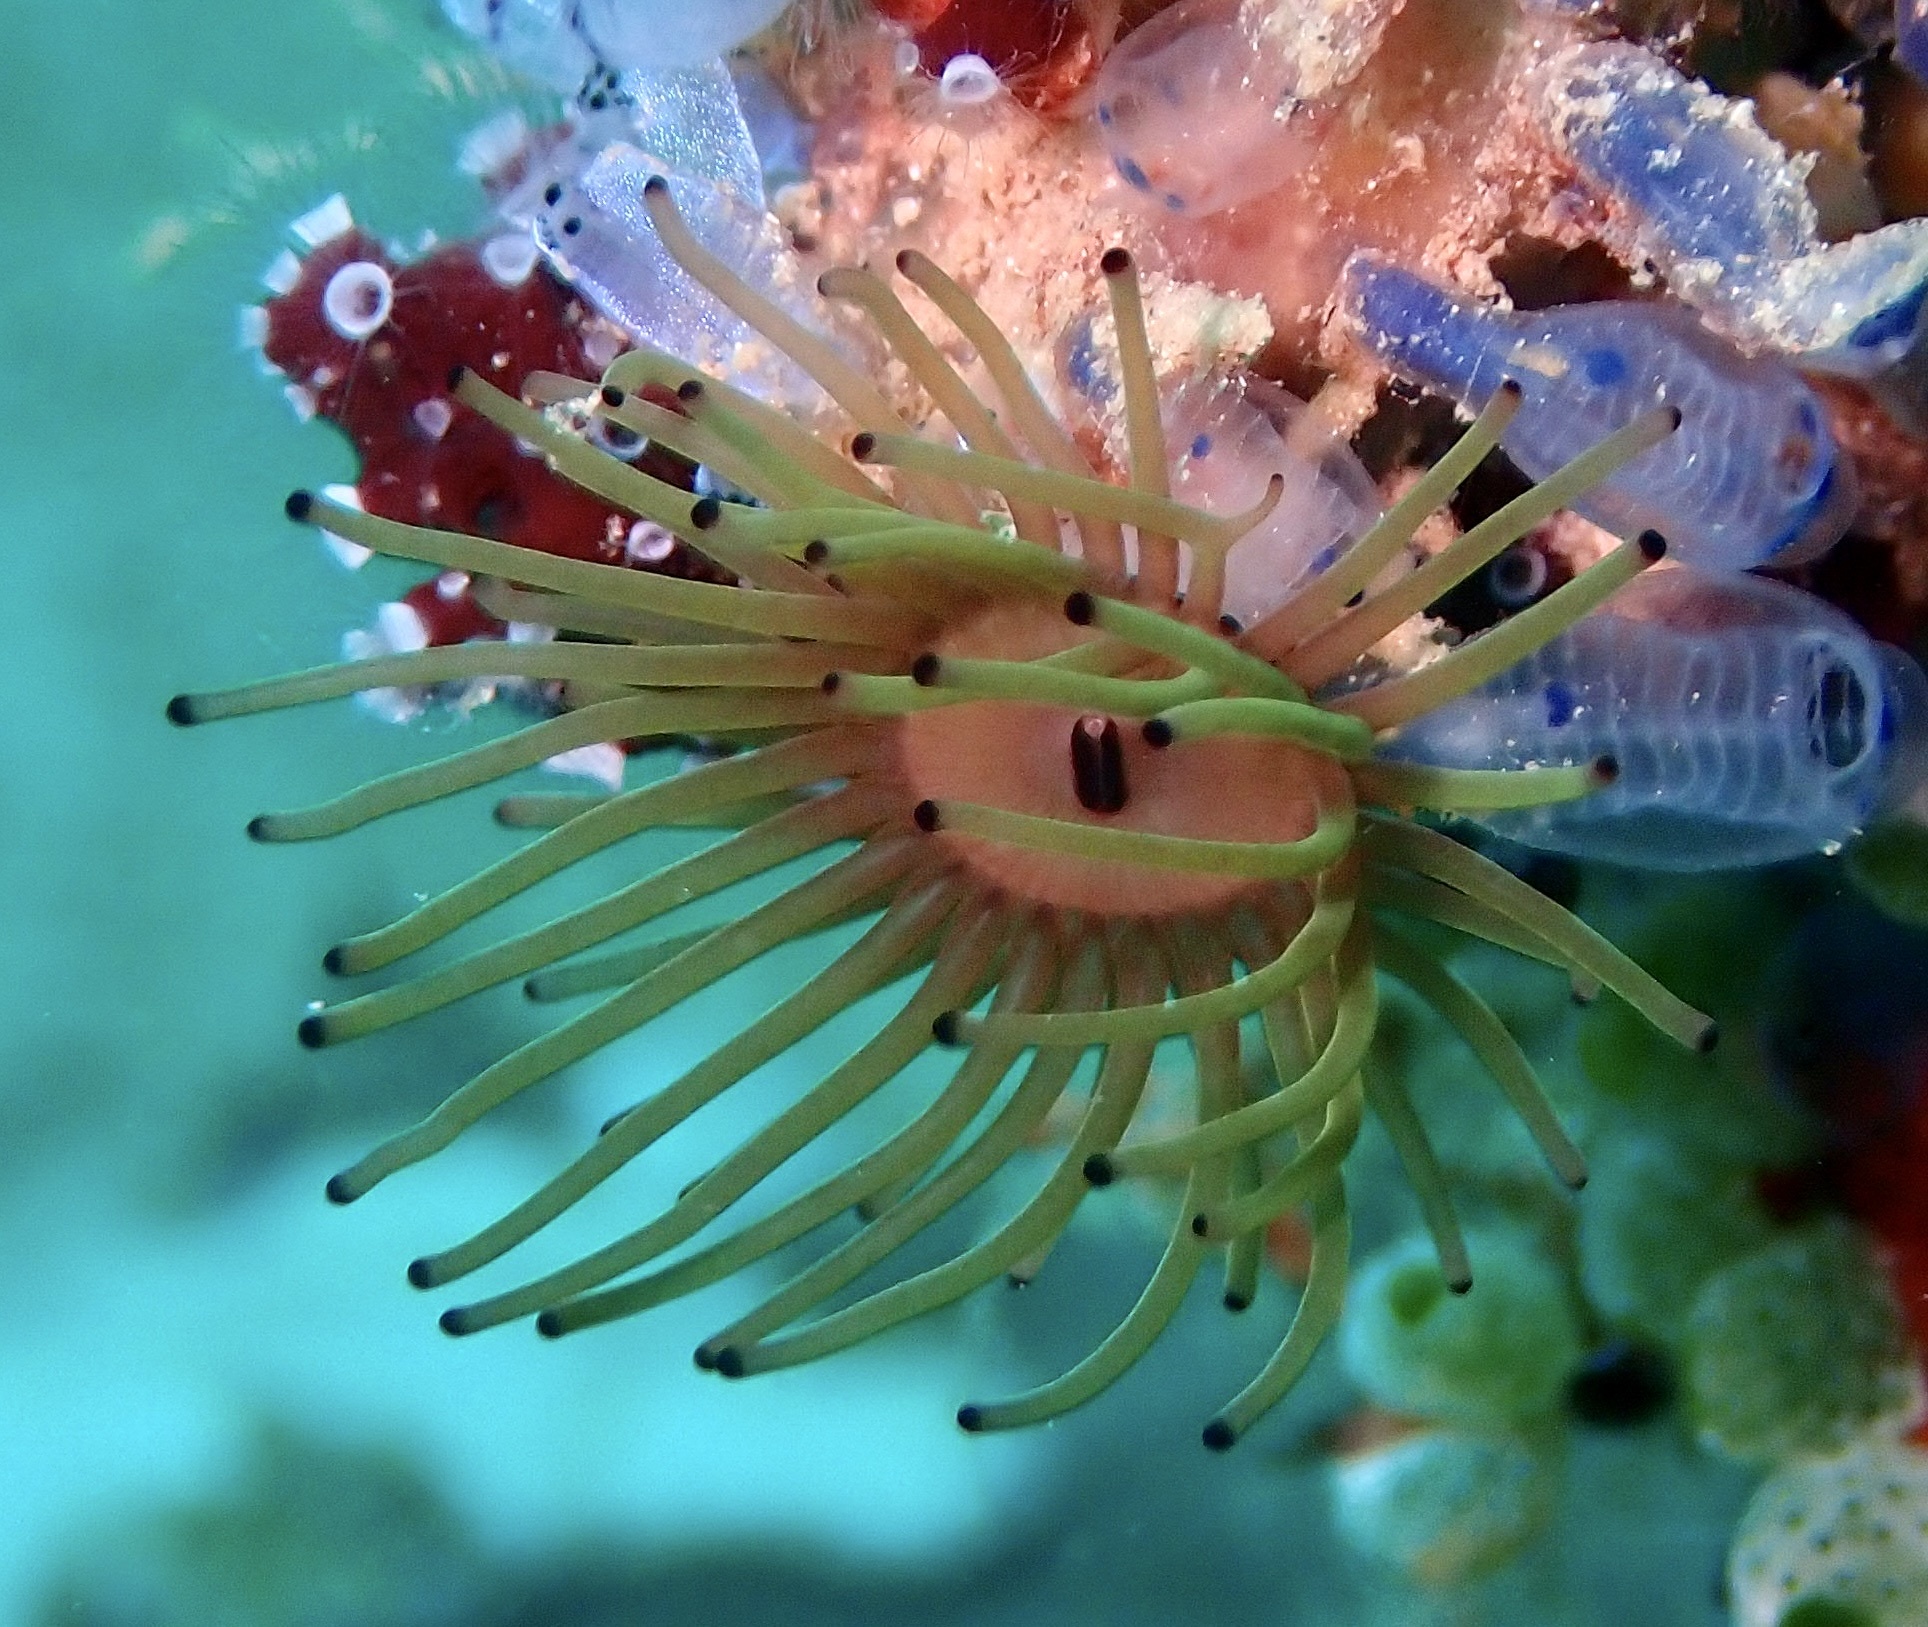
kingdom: Animalia
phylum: Cnidaria
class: Anthozoa
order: Zoantharia
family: Zoanthidae
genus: Acrozoanthus
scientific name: Acrozoanthus australiae
